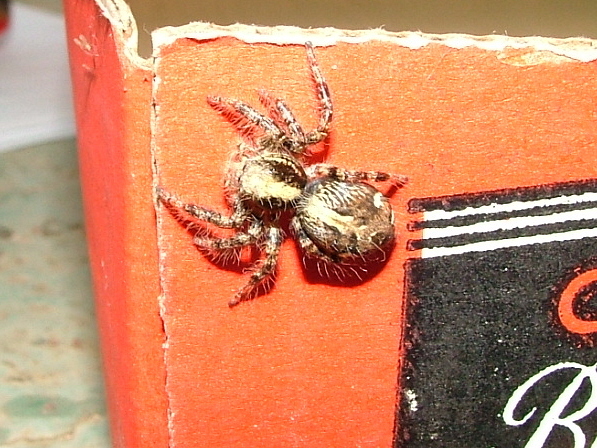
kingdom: Animalia
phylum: Arthropoda
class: Arachnida
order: Araneae
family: Salticidae
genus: Hyllus
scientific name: Hyllus treleaveni
